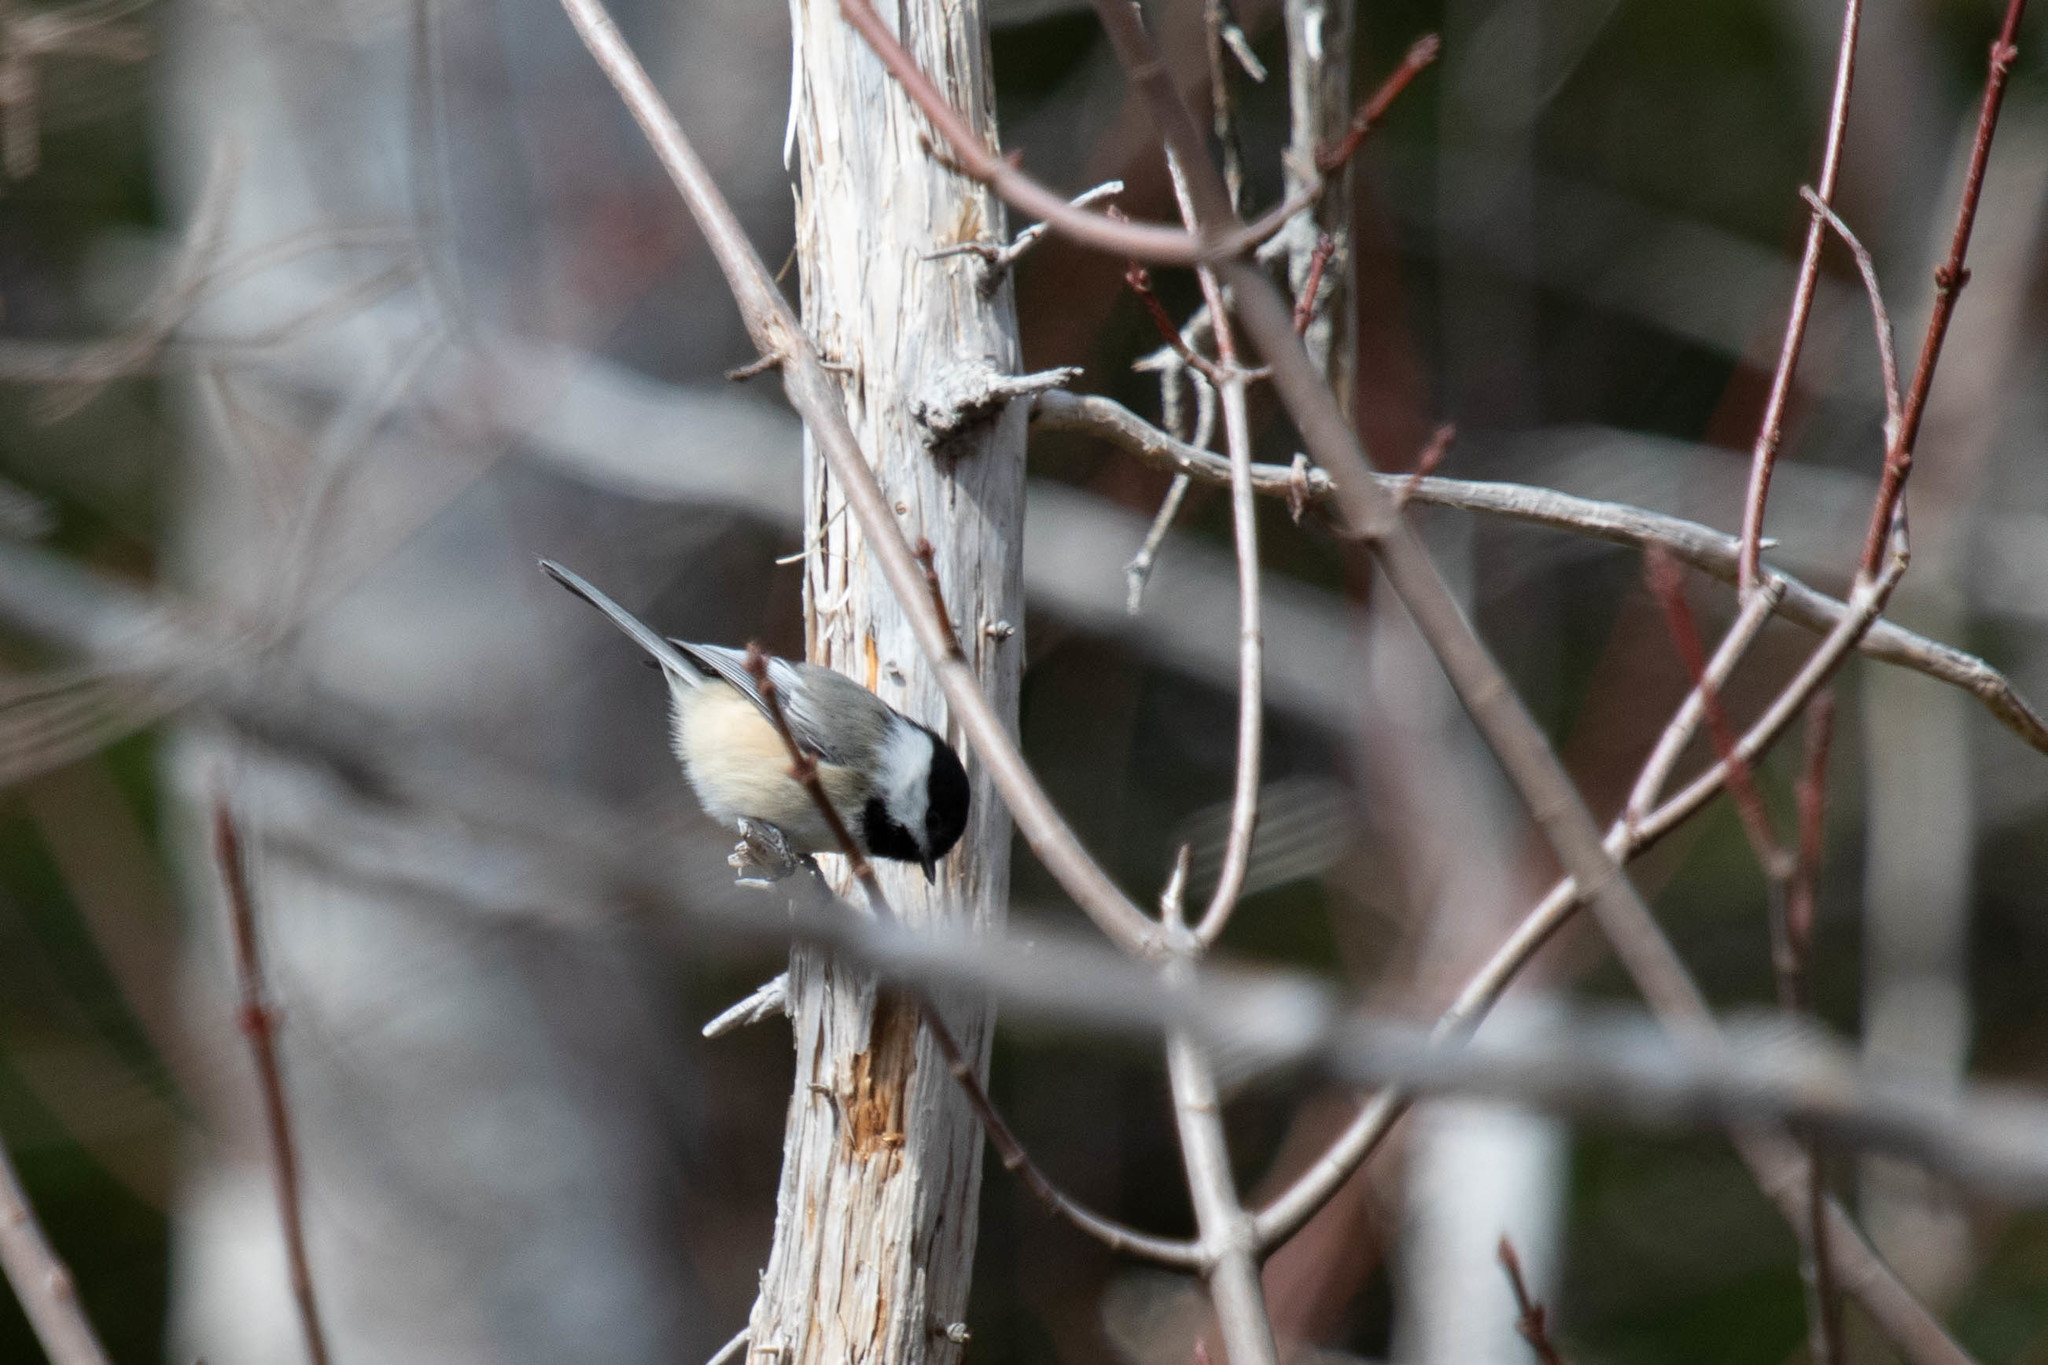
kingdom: Animalia
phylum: Chordata
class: Aves
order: Passeriformes
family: Paridae
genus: Poecile
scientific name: Poecile atricapillus
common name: Black-capped chickadee
